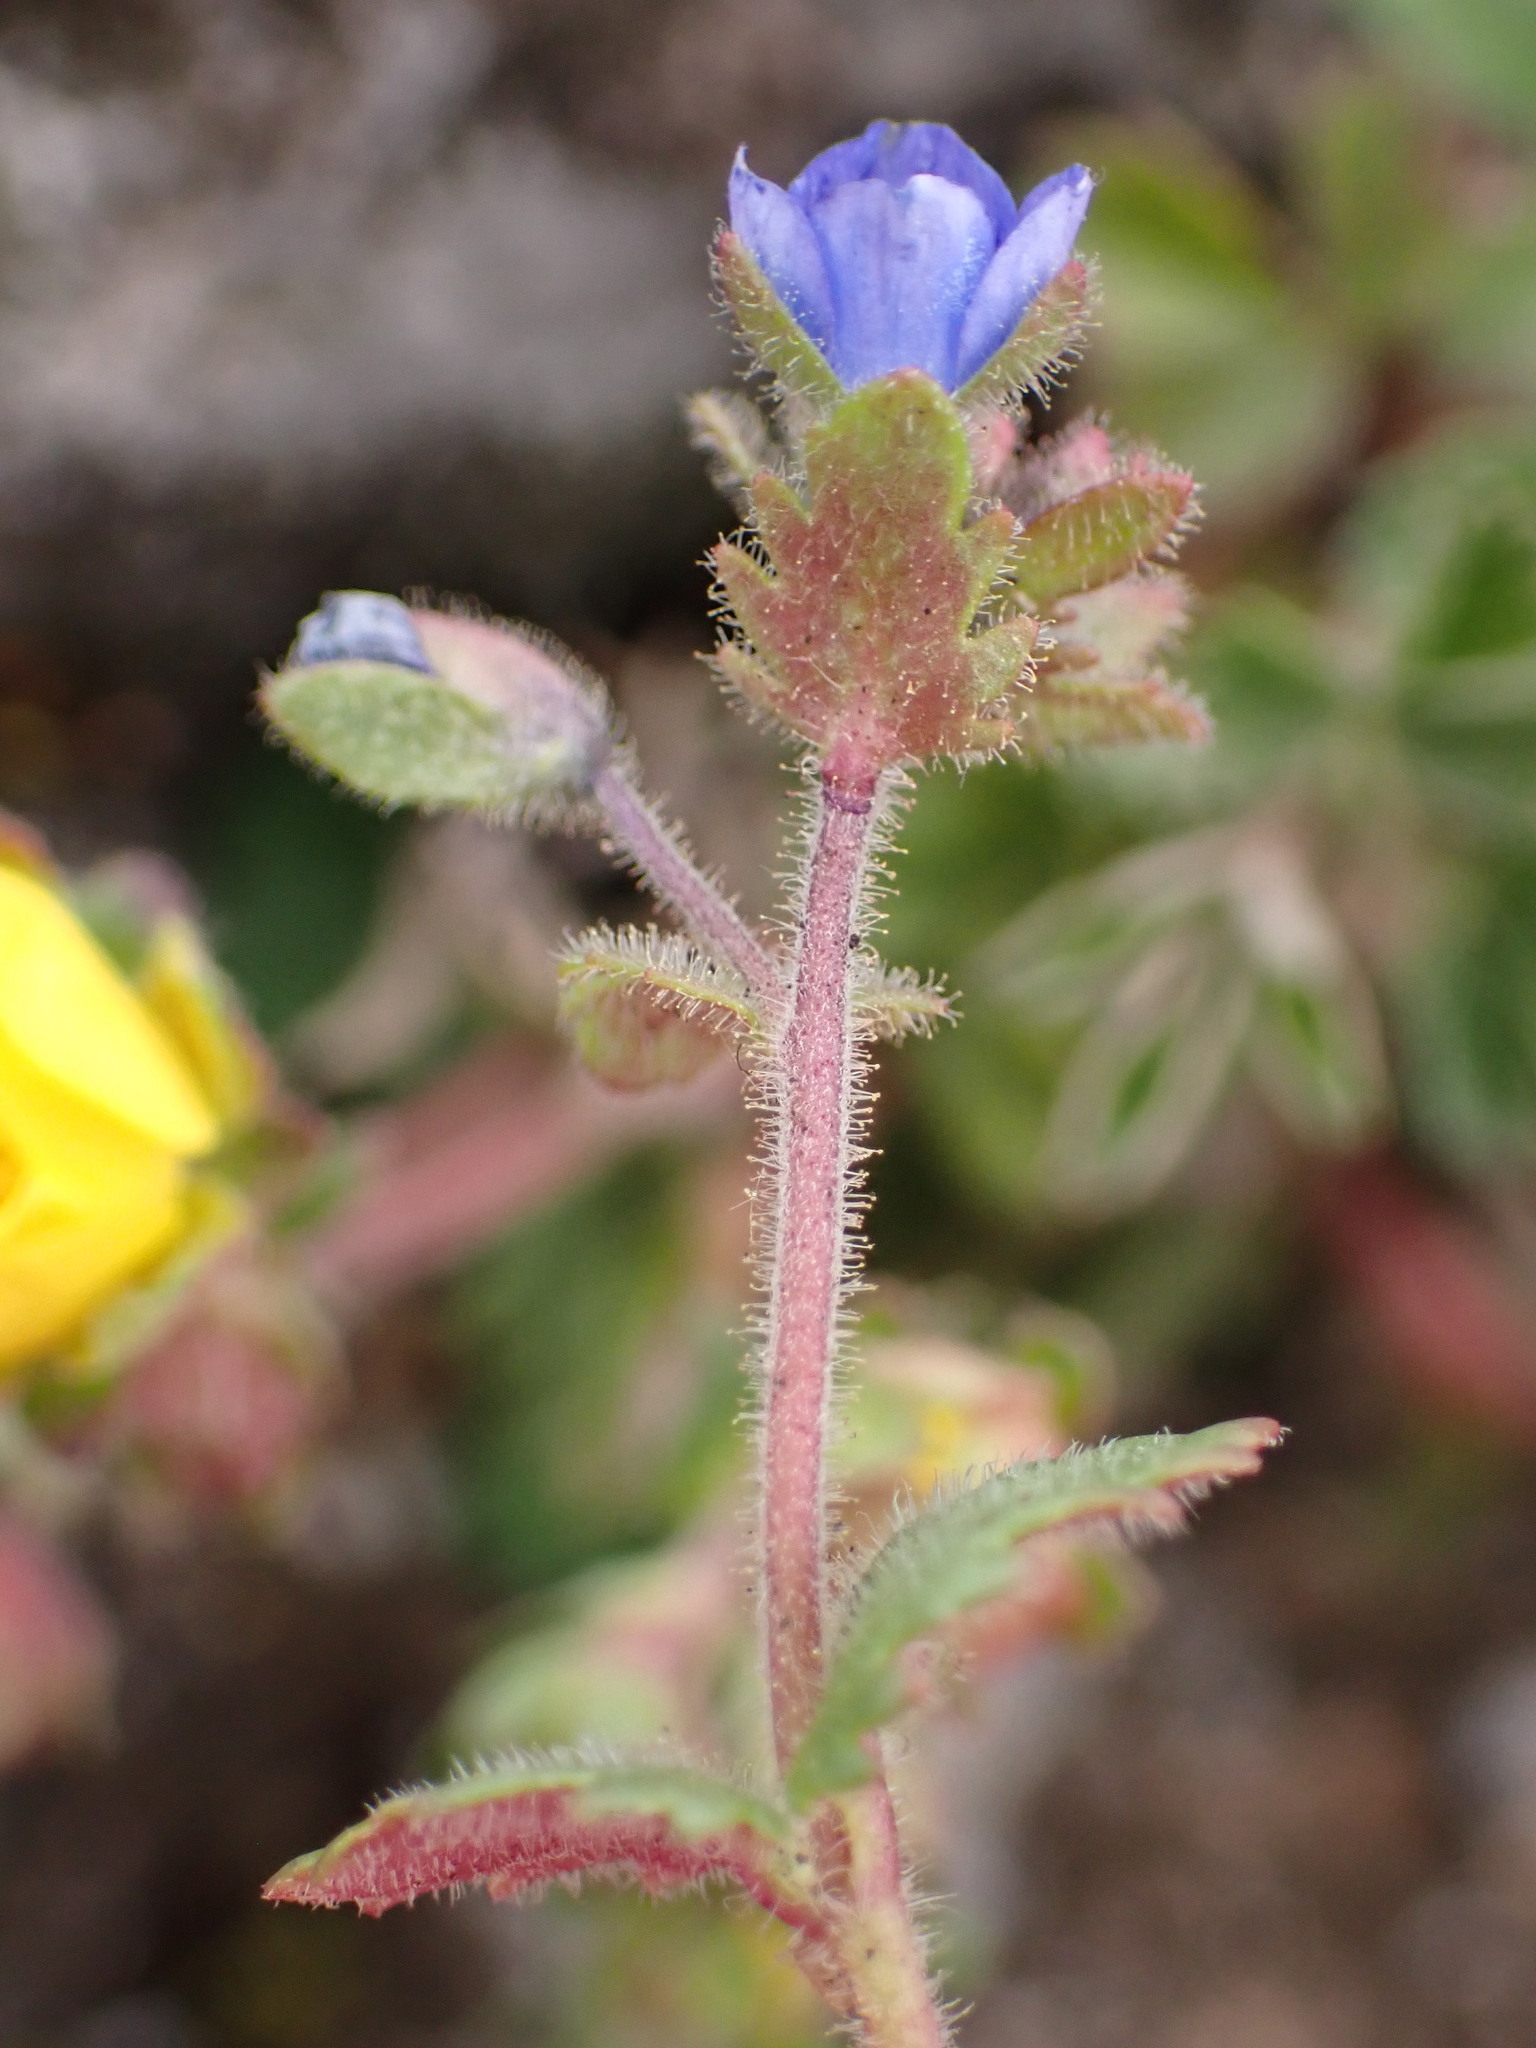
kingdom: Plantae
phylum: Tracheophyta
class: Magnoliopsida
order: Lamiales
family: Plantaginaceae
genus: Veronica
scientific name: Veronica praecox
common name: Breckland speedwell
